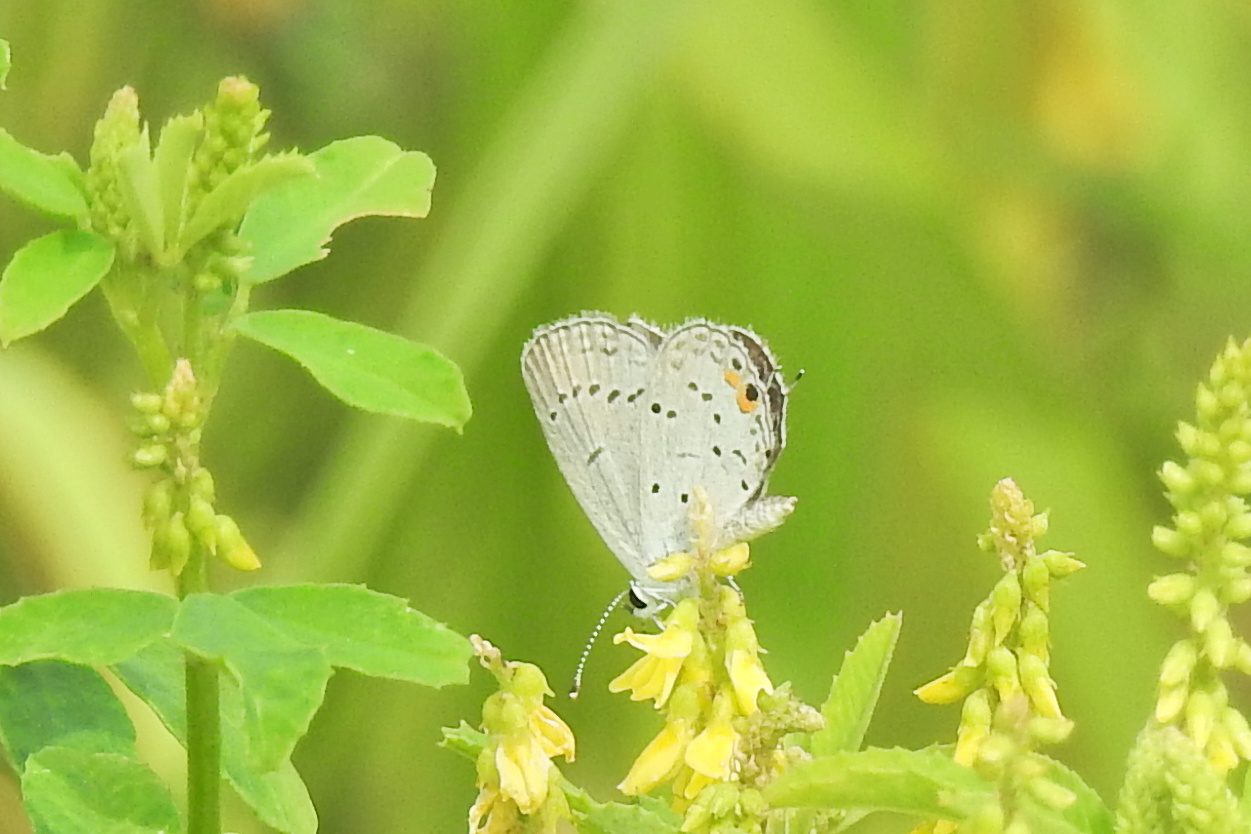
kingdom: Animalia
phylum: Arthropoda
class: Insecta
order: Lepidoptera
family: Lycaenidae
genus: Elkalyce
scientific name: Elkalyce comyntas
